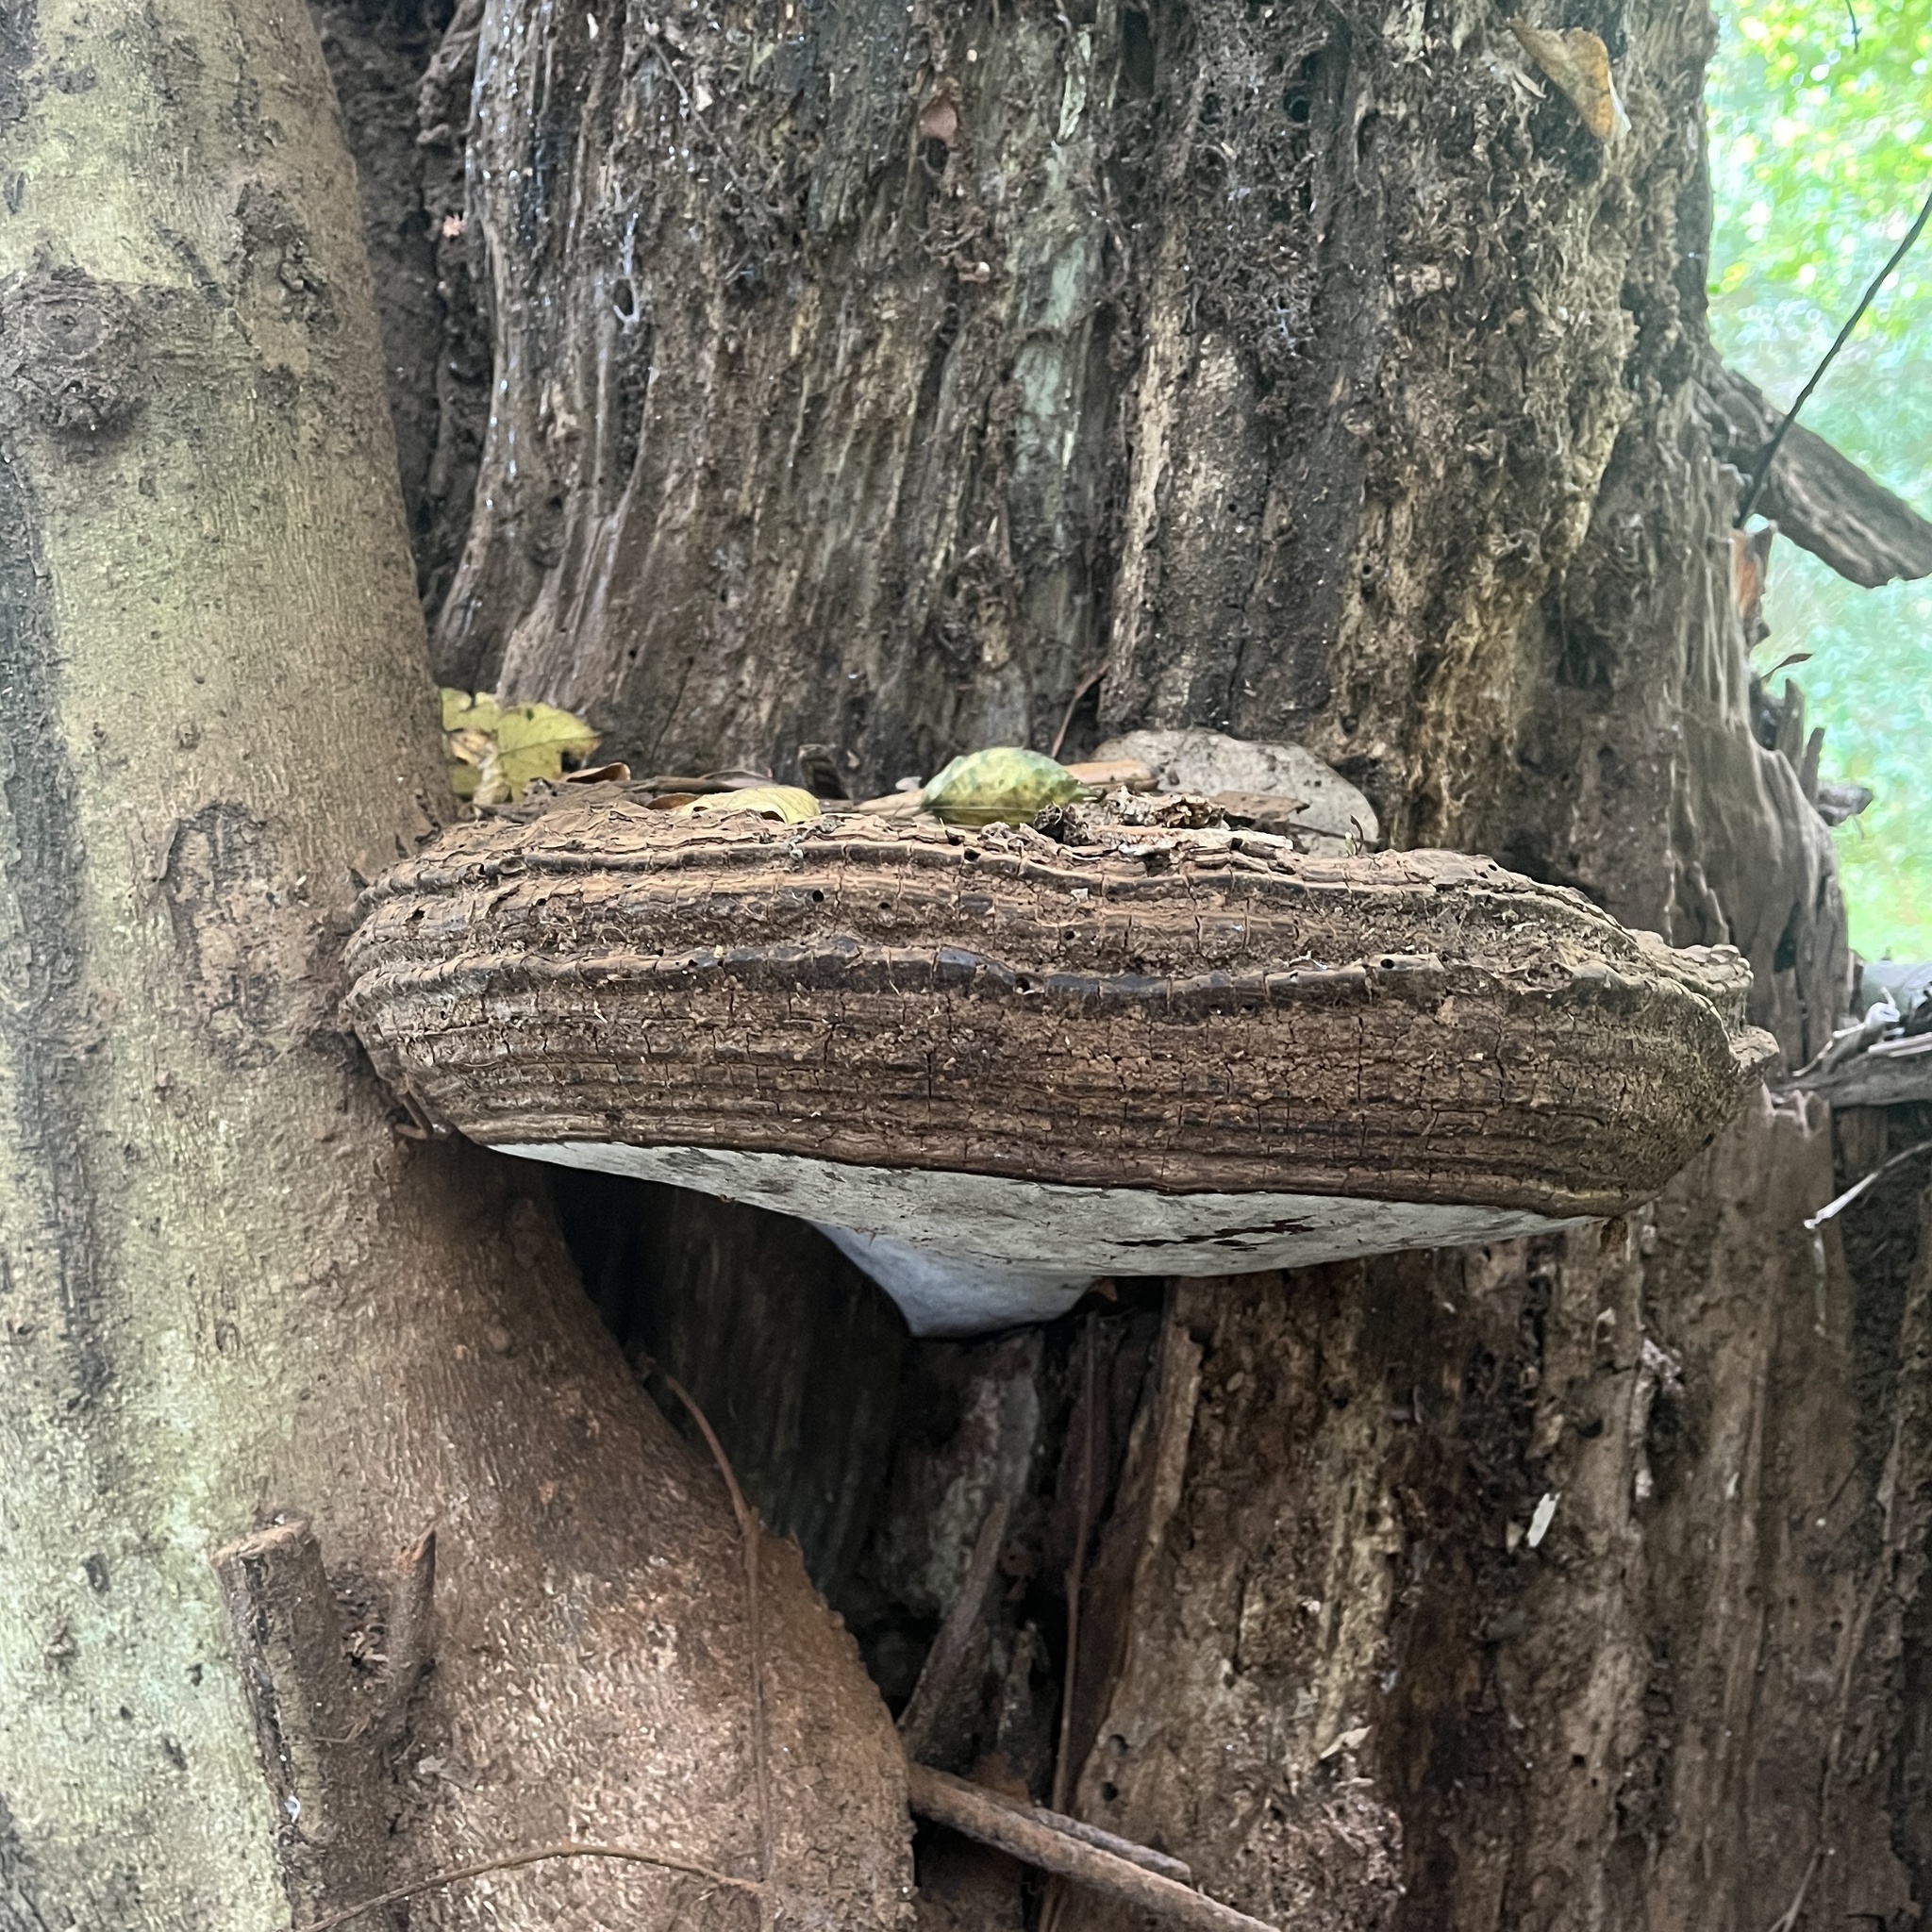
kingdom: Fungi
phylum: Basidiomycota
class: Agaricomycetes
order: Polyporales
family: Polyporaceae
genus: Ganoderma
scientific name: Ganoderma australe
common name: Southern bracket
